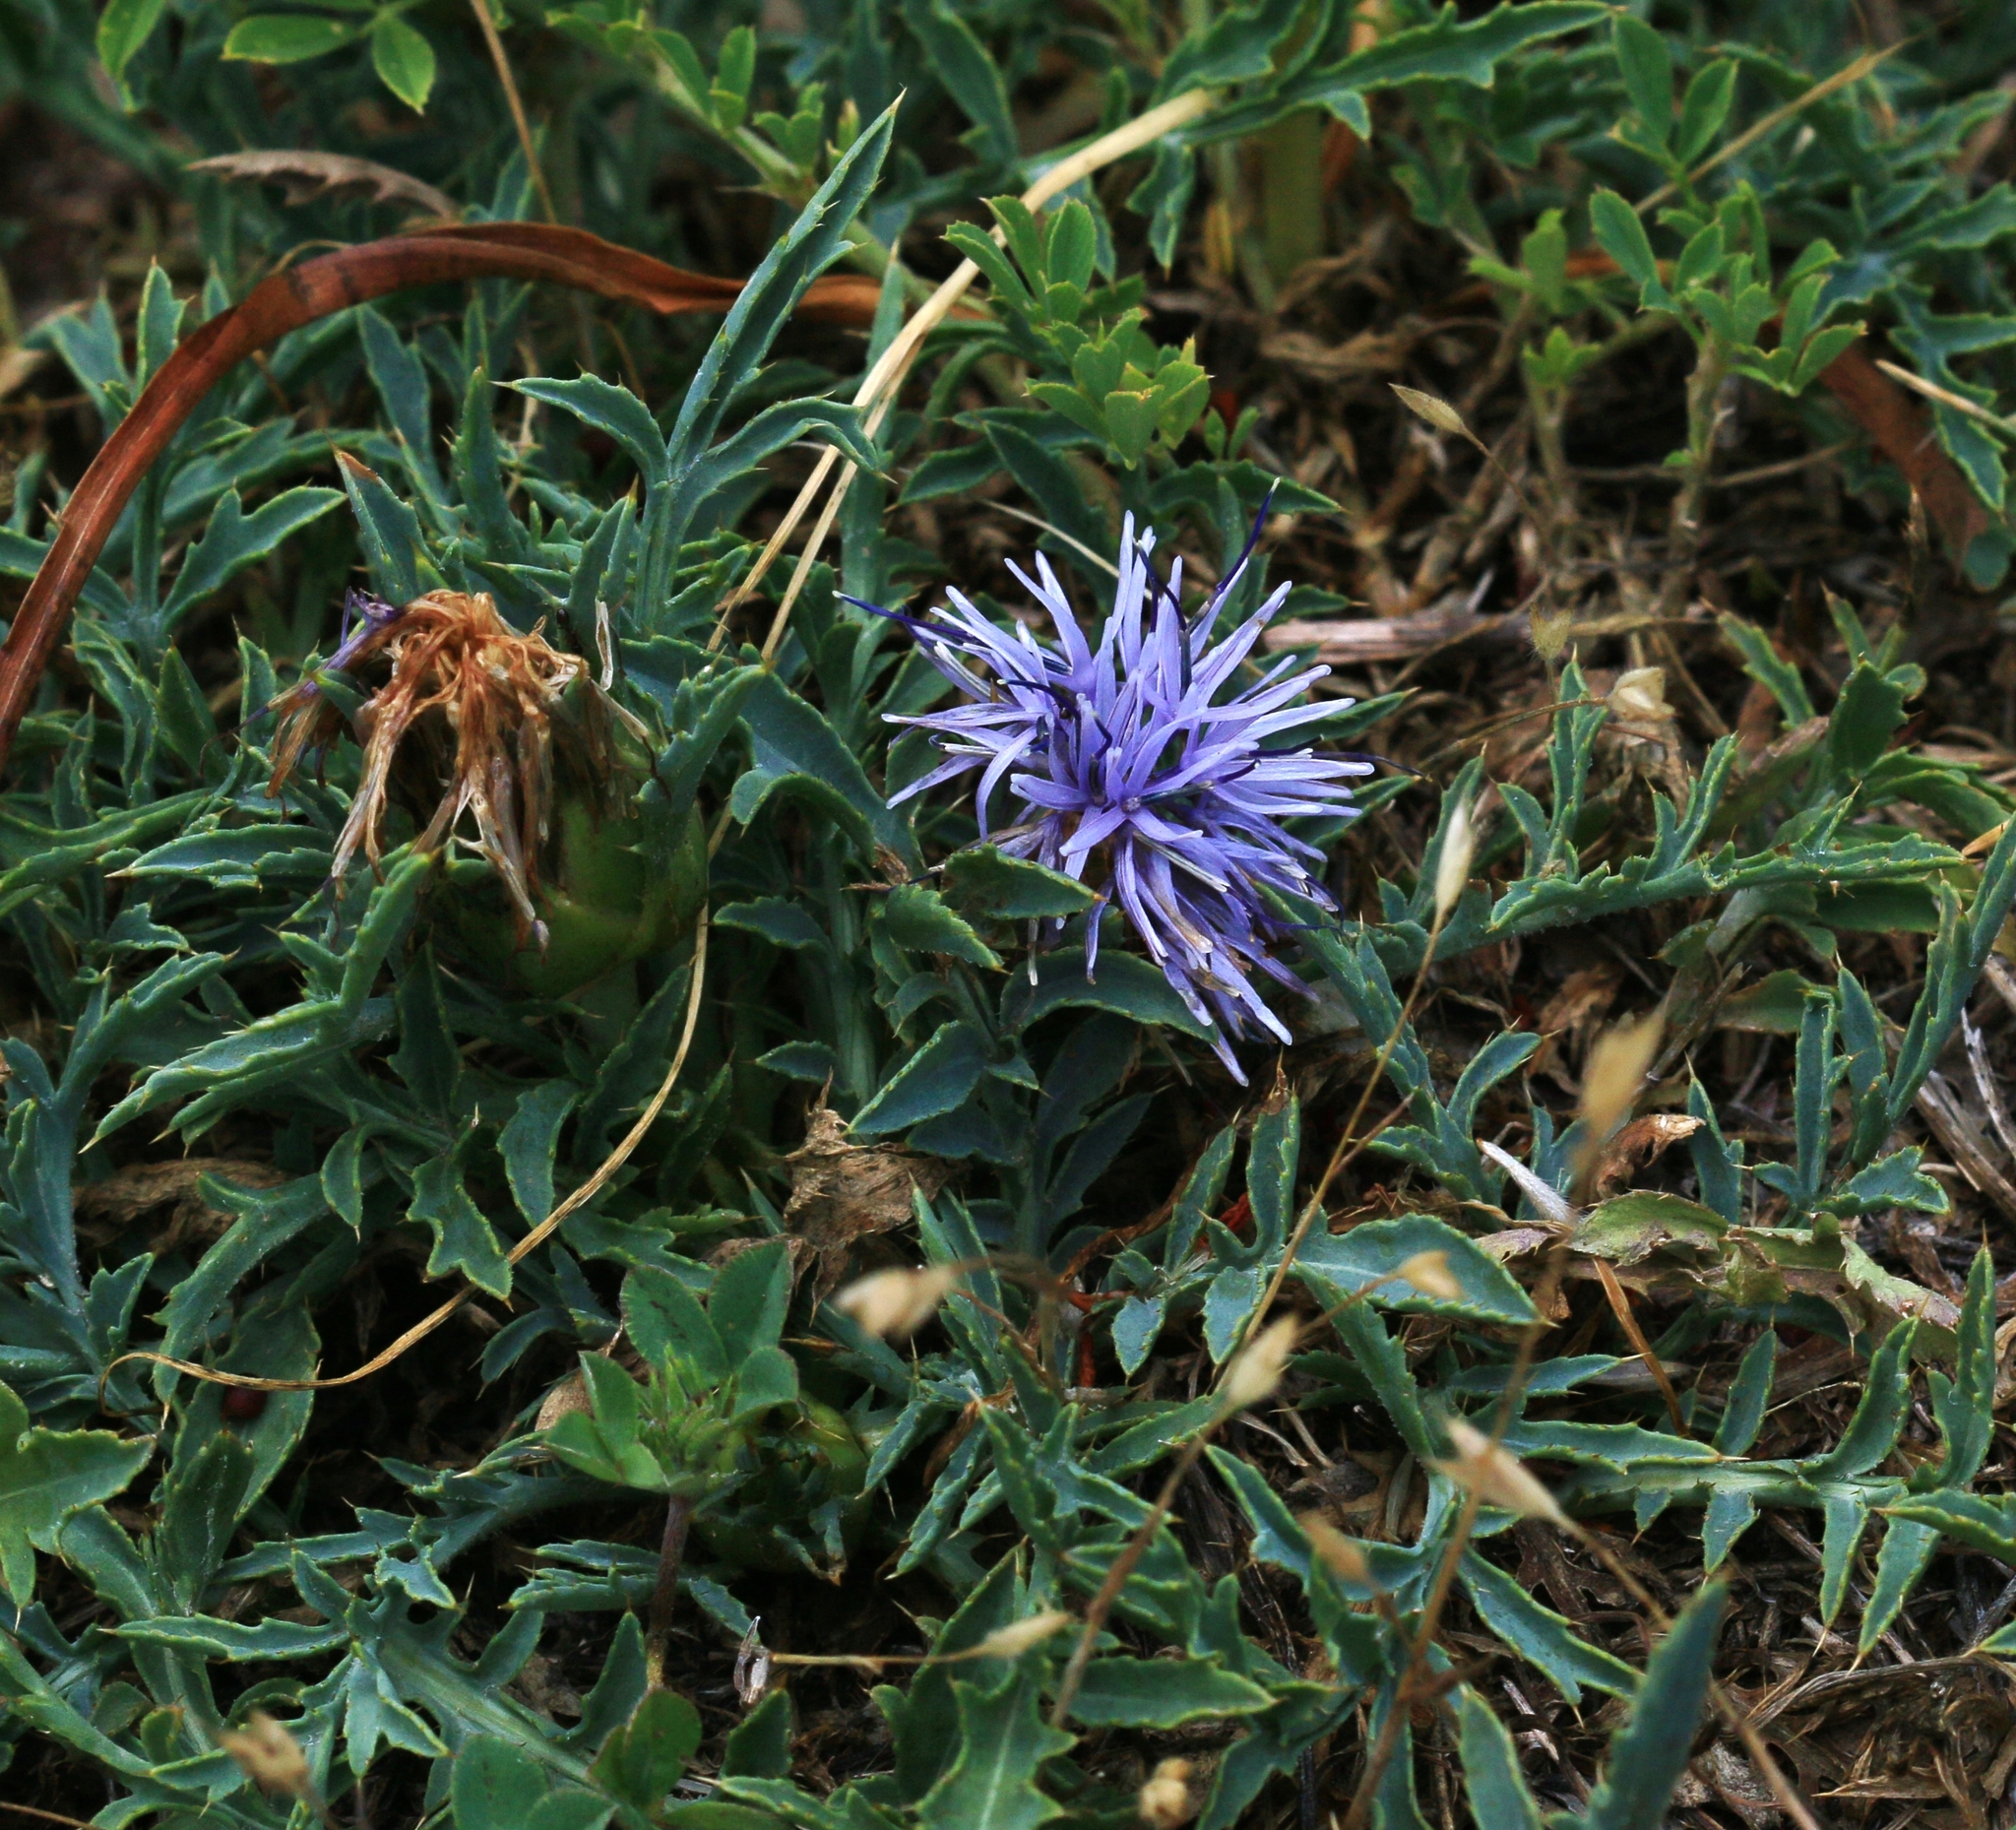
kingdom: Plantae
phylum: Tracheophyta
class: Magnoliopsida
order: Asterales
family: Asteraceae
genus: Carduncellus
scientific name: Carduncellus monspelliensium
